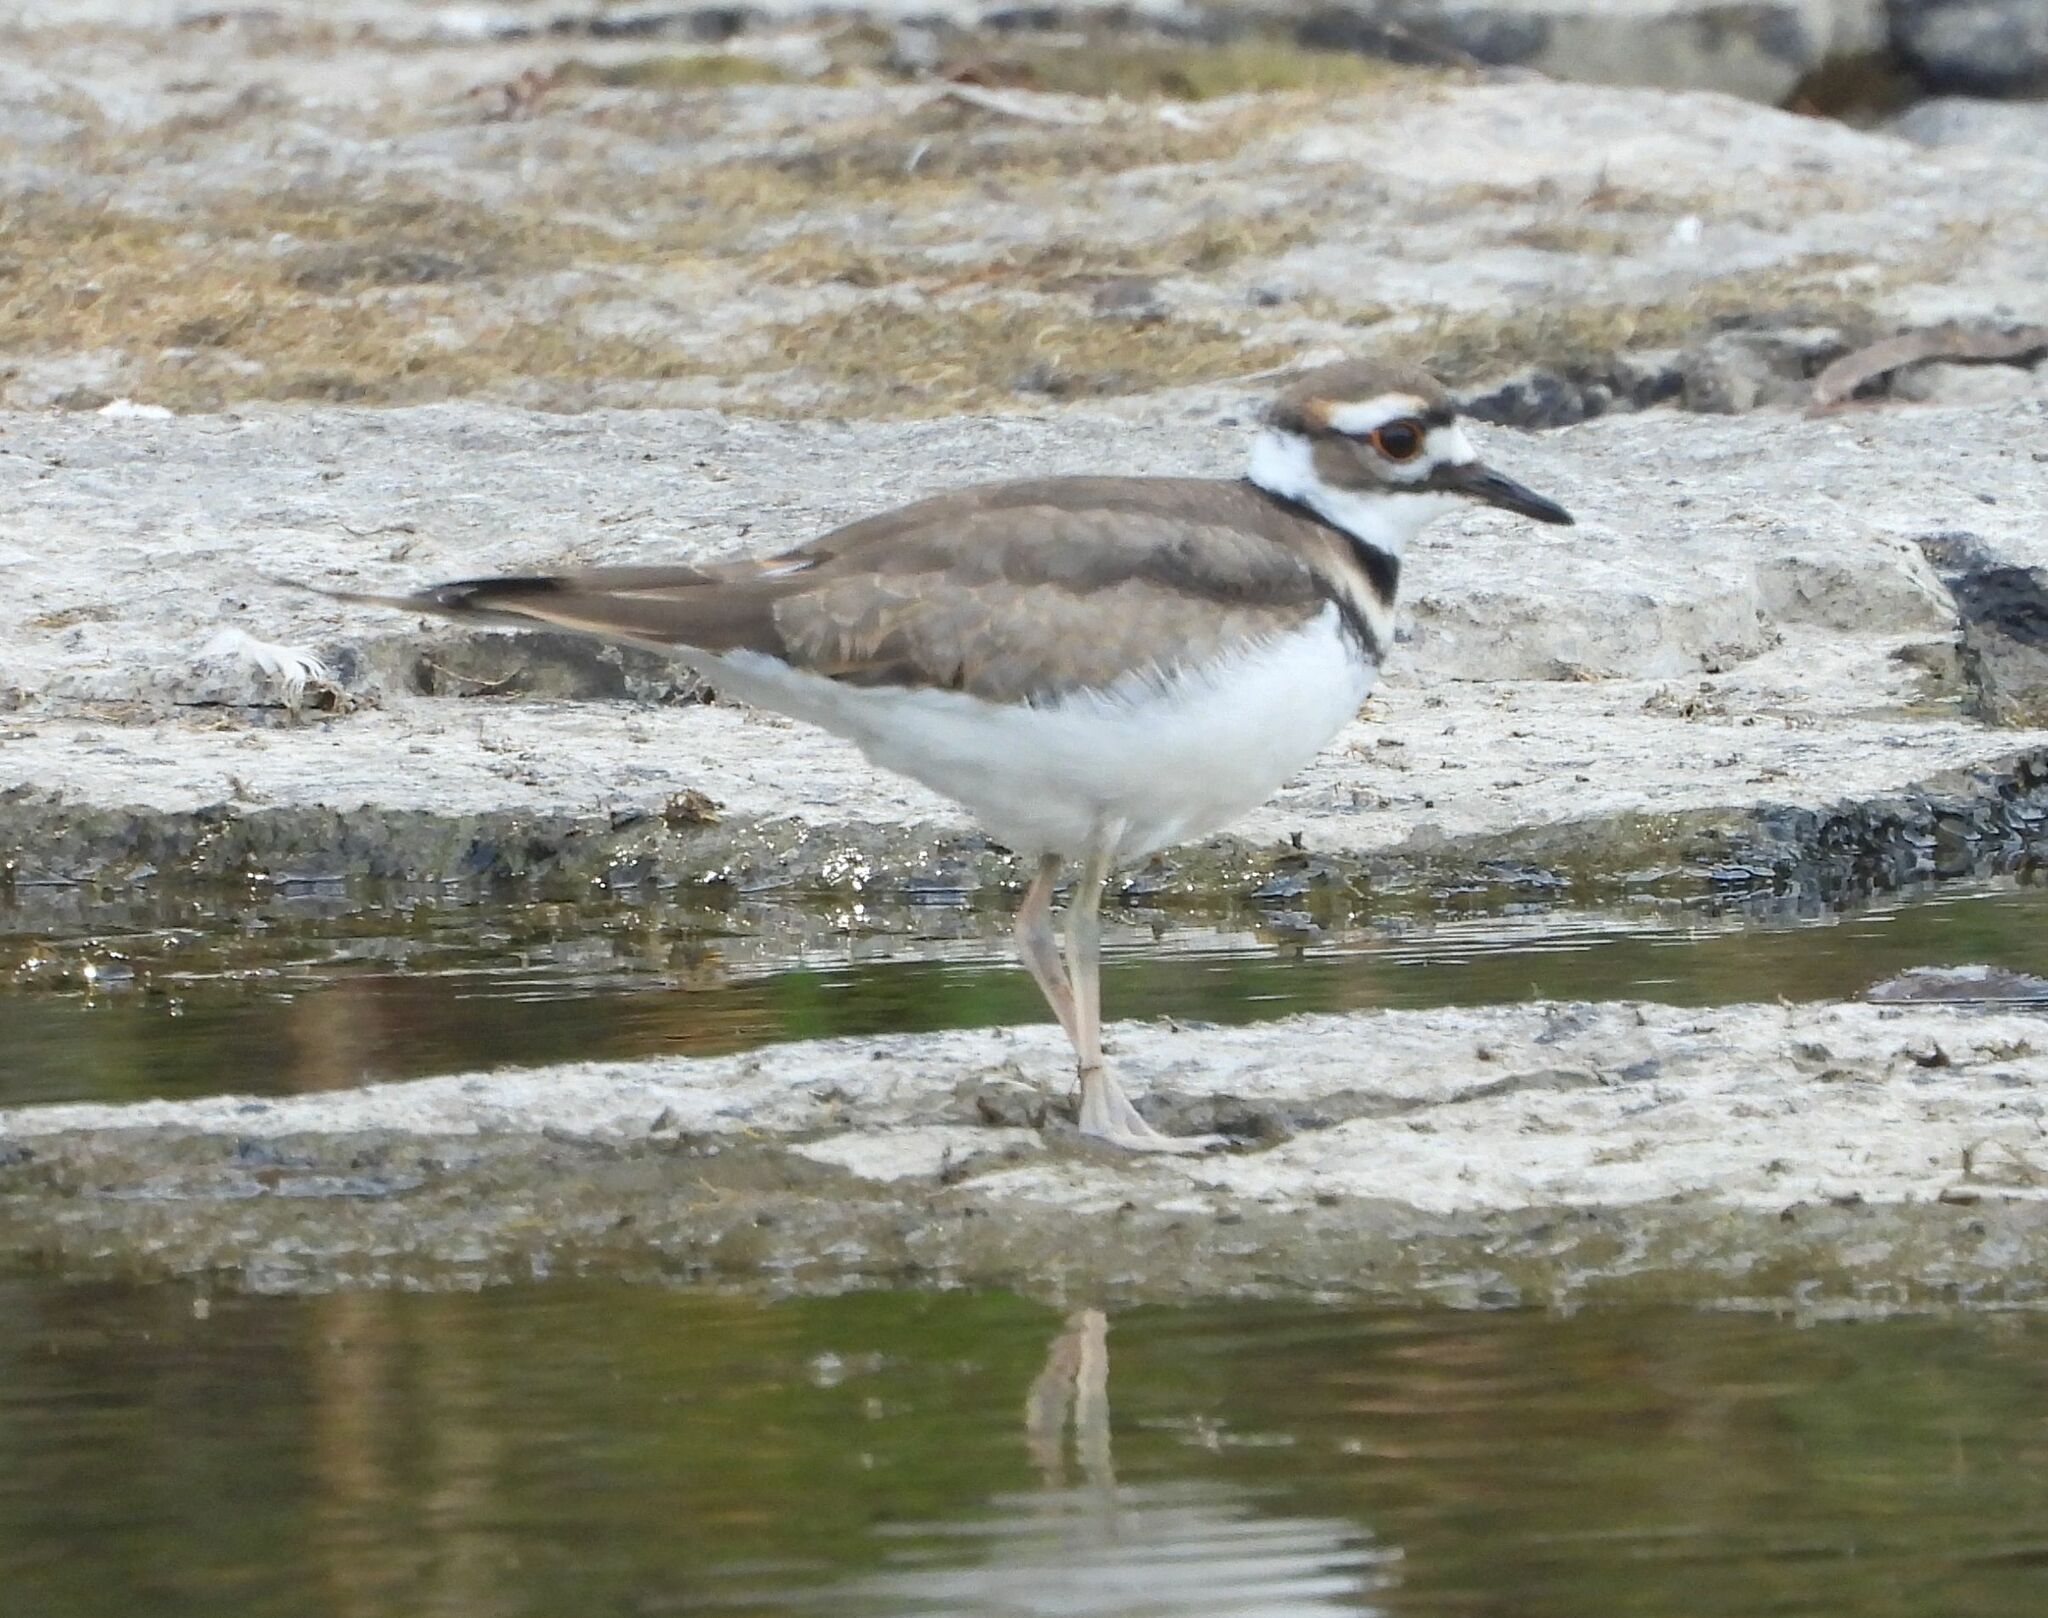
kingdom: Animalia
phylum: Chordata
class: Aves
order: Charadriiformes
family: Charadriidae
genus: Charadrius
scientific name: Charadrius vociferus
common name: Killdeer
